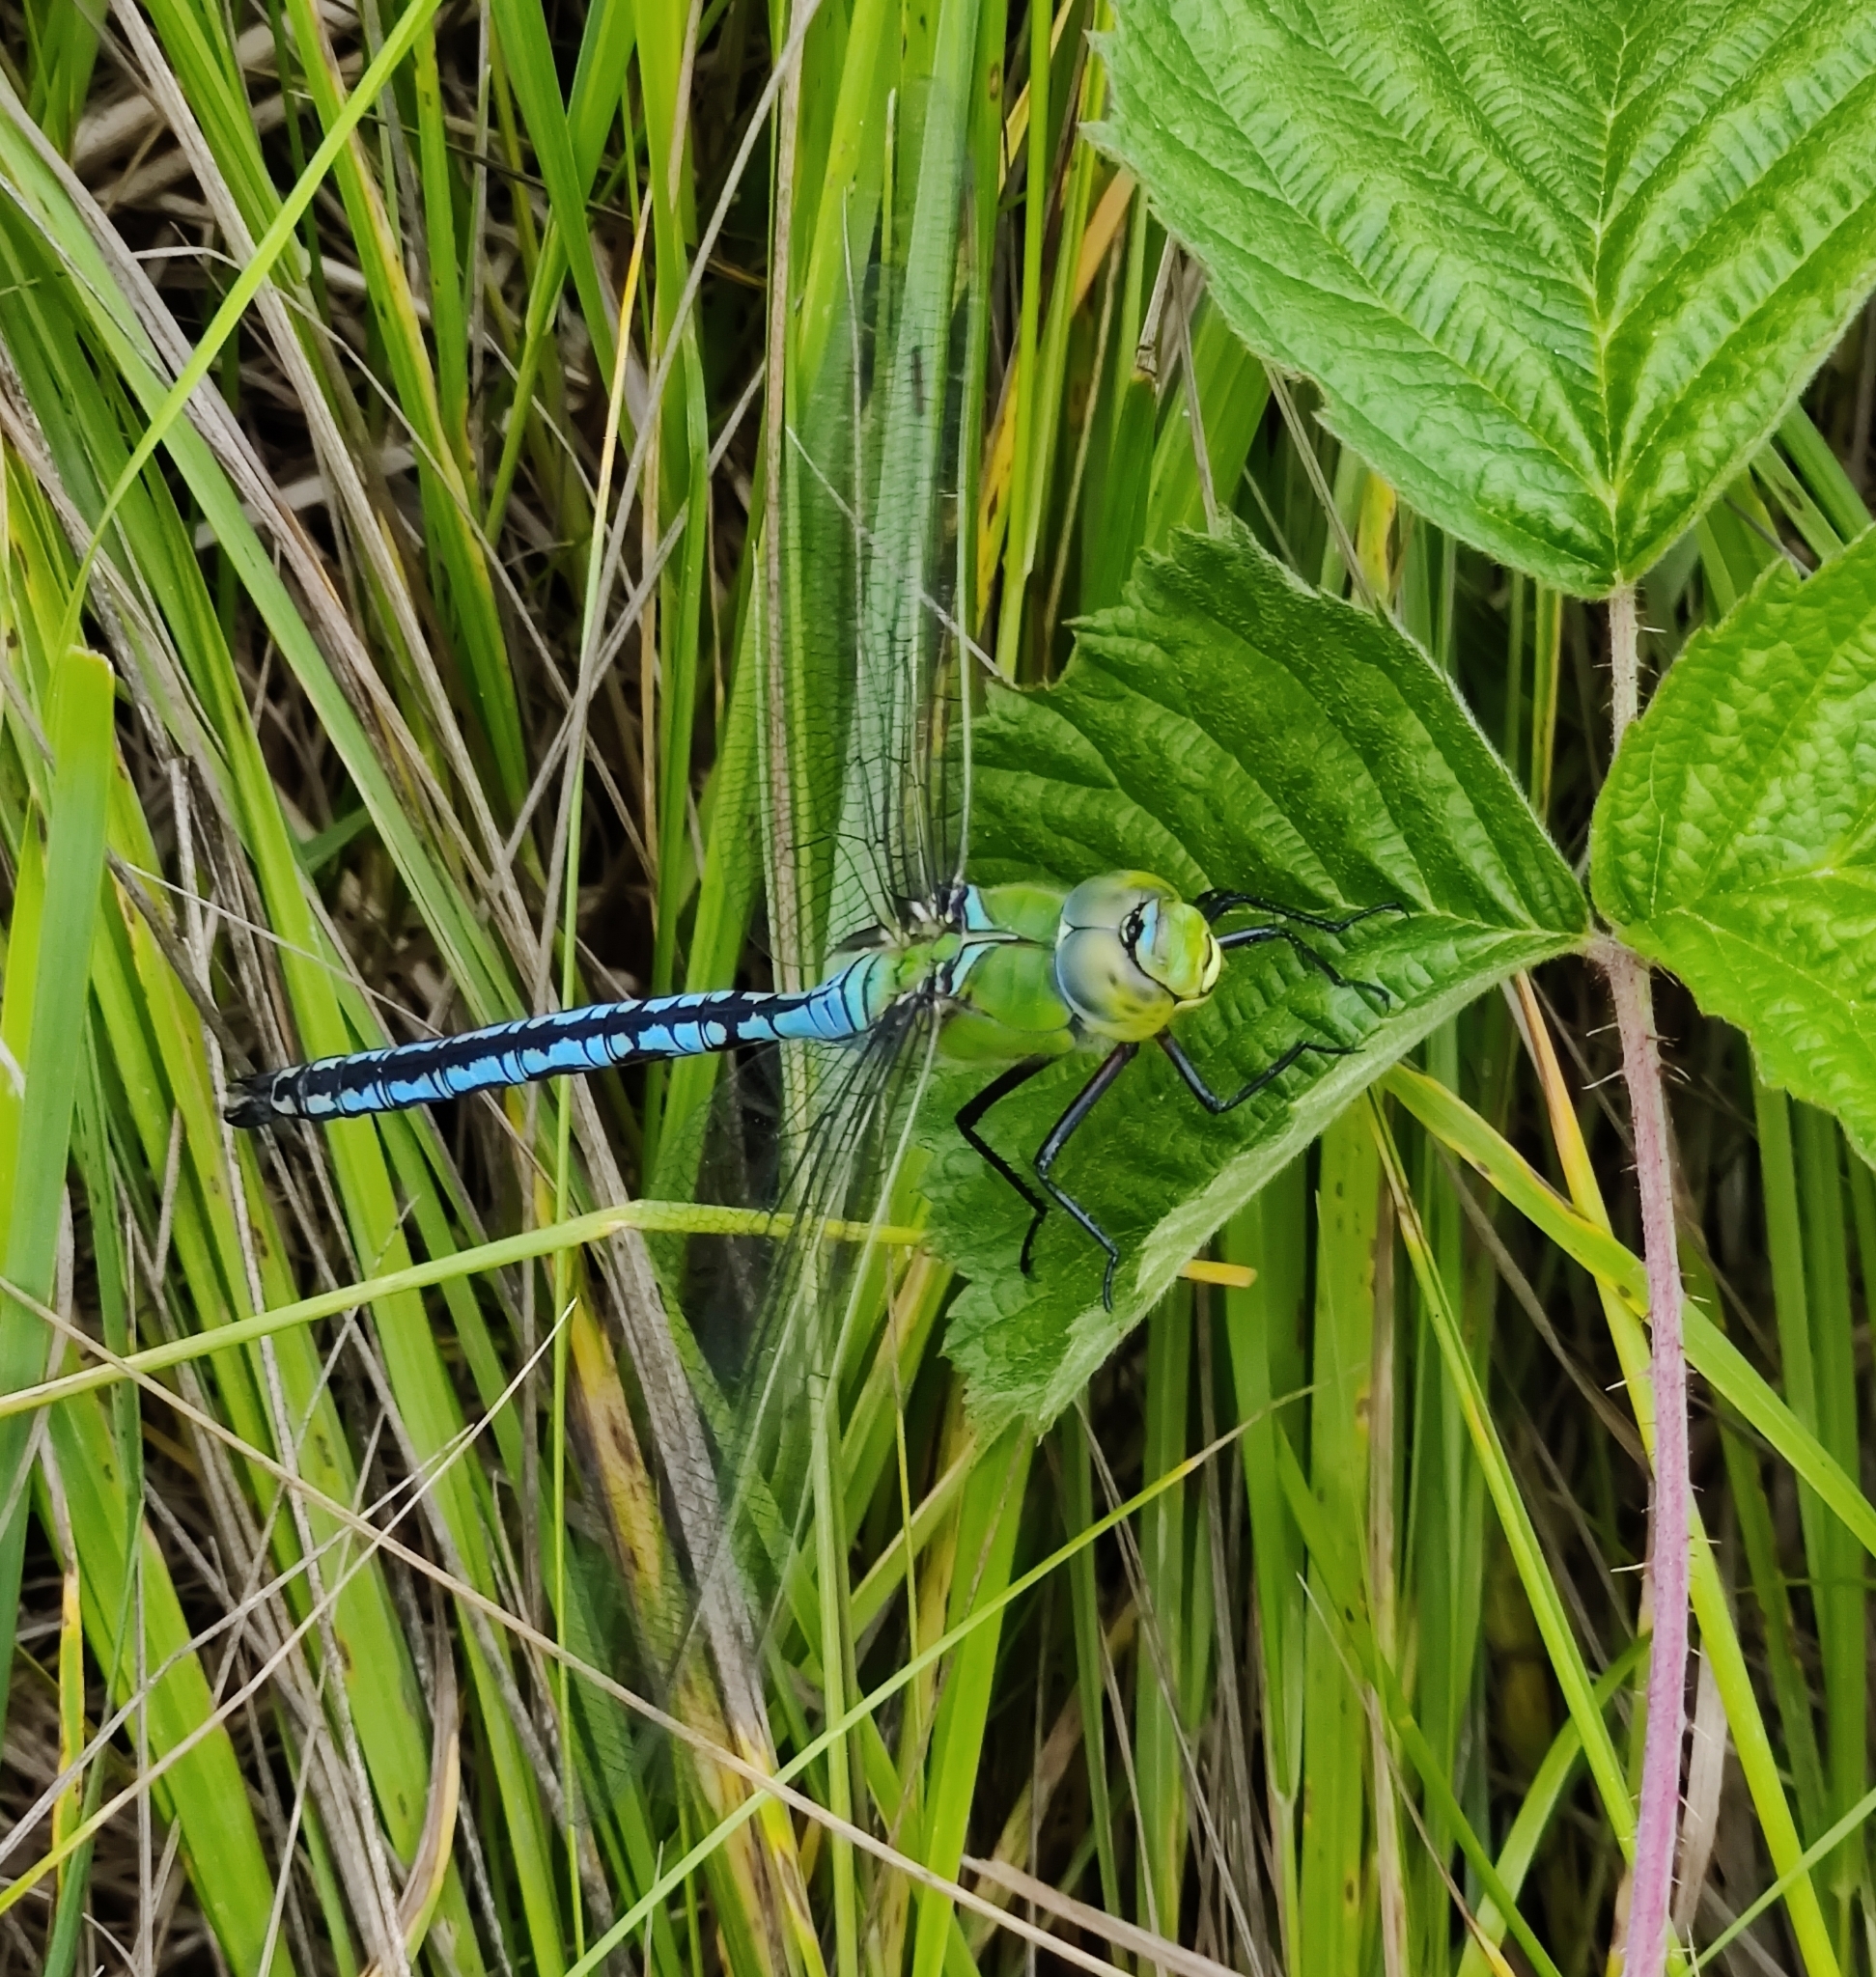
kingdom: Animalia
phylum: Arthropoda
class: Insecta
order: Odonata
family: Aeshnidae
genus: Anax
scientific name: Anax imperator
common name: Emperor dragonfly
